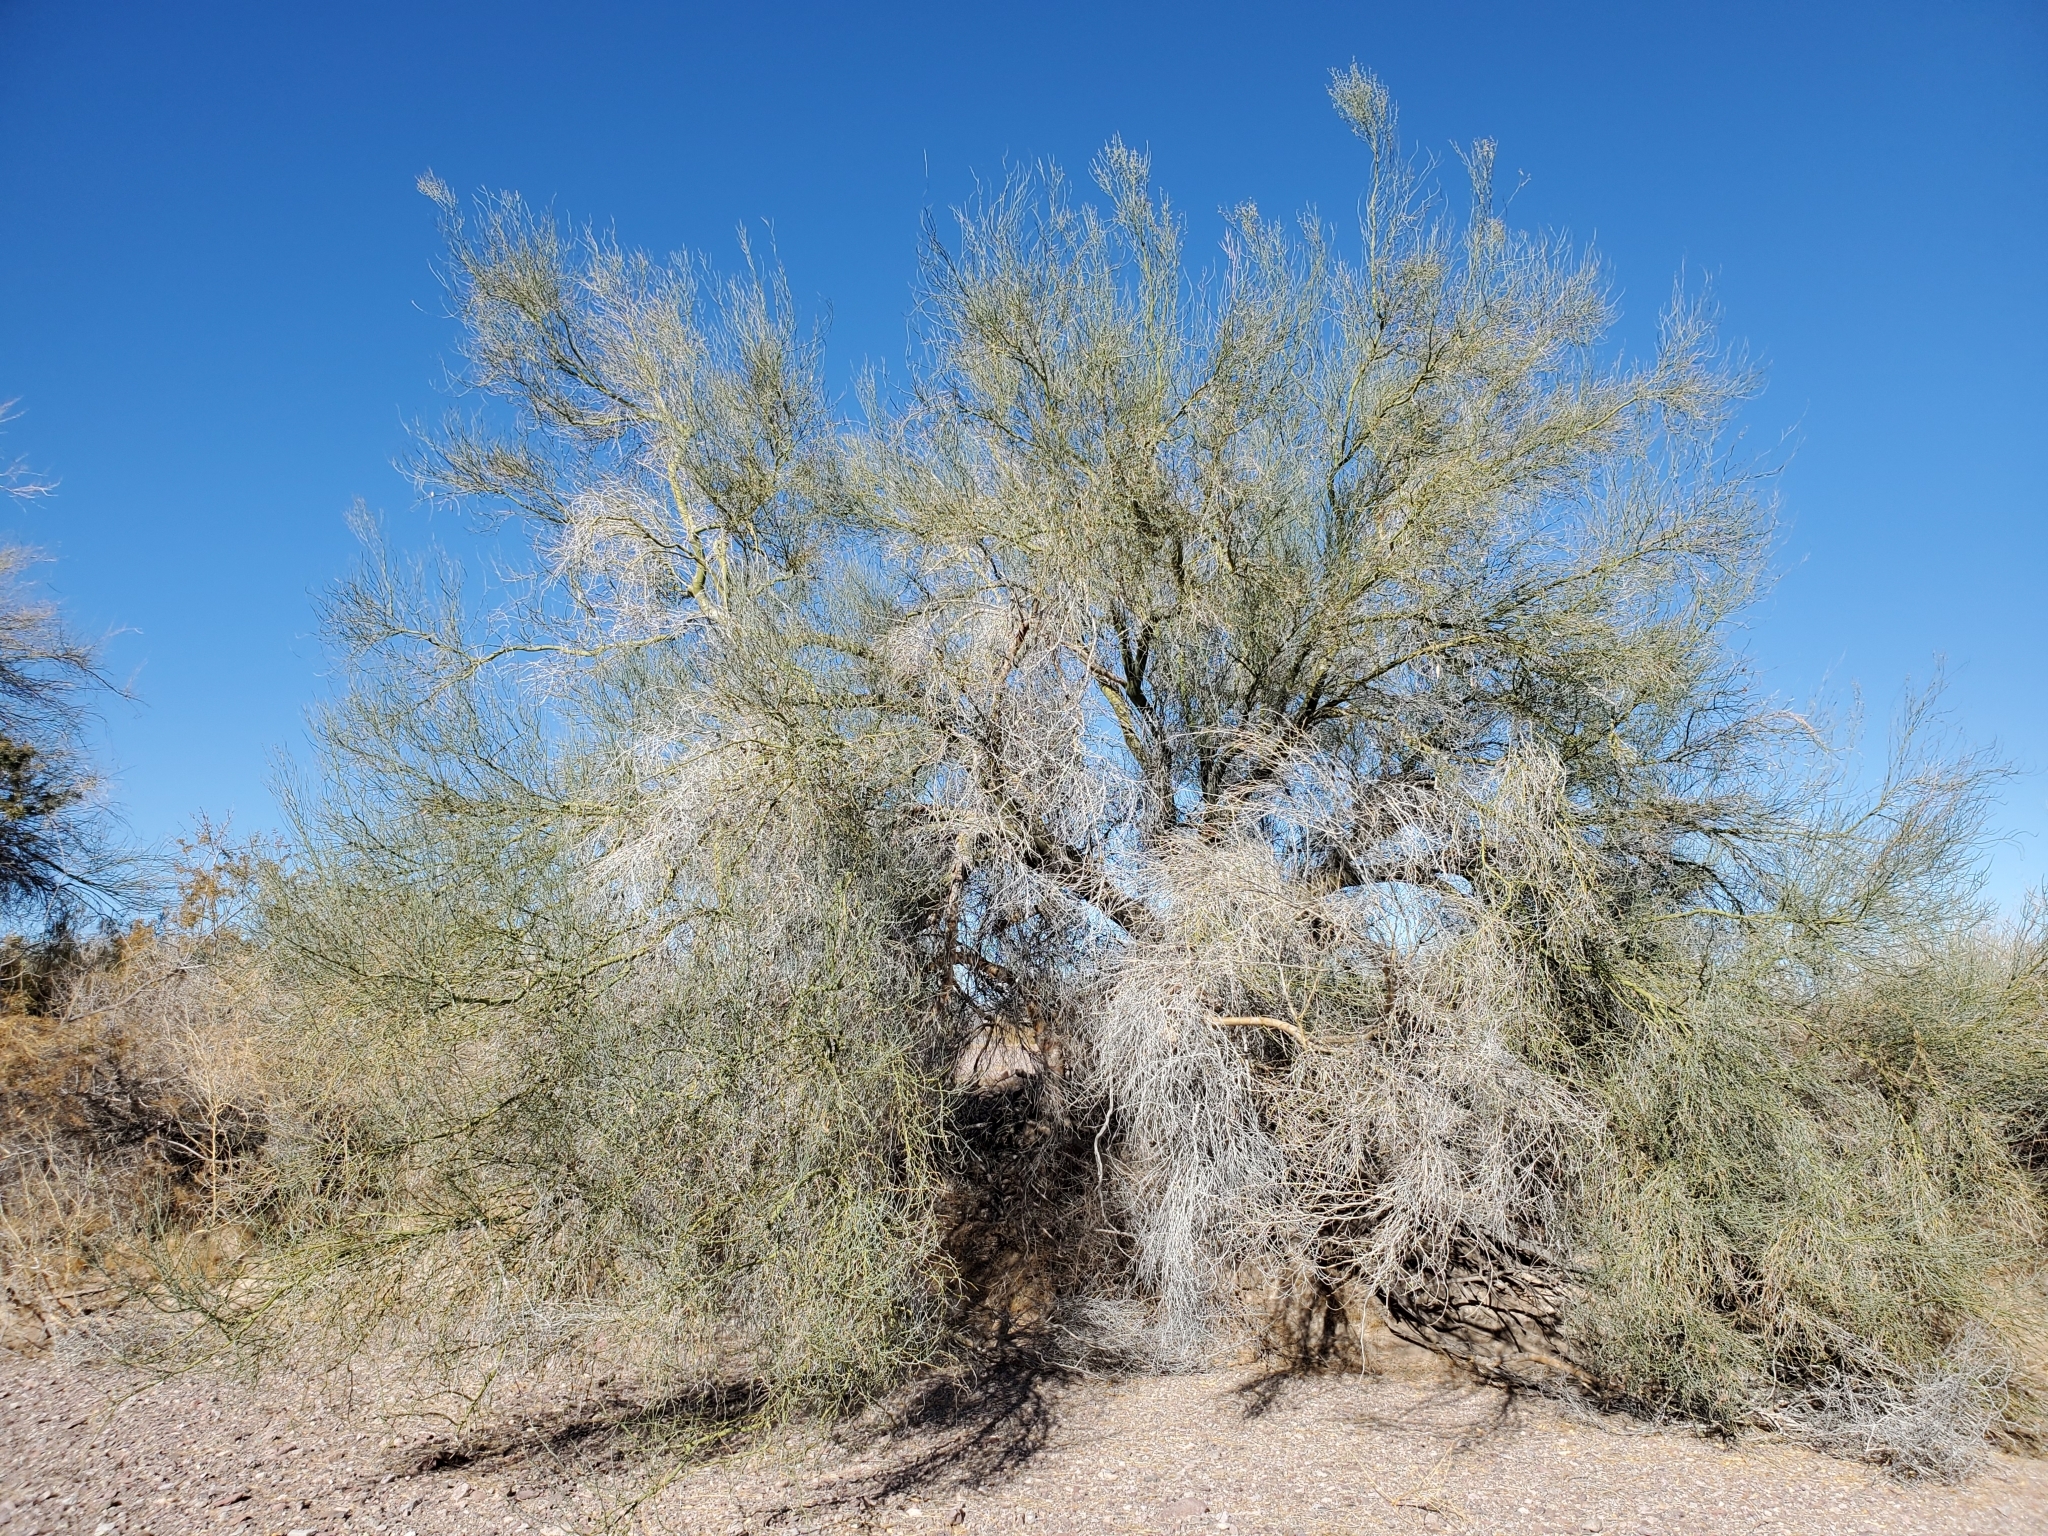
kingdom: Plantae
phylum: Tracheophyta
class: Magnoliopsida
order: Fabales
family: Fabaceae
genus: Parkinsonia
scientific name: Parkinsonia florida
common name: Blue paloverde
